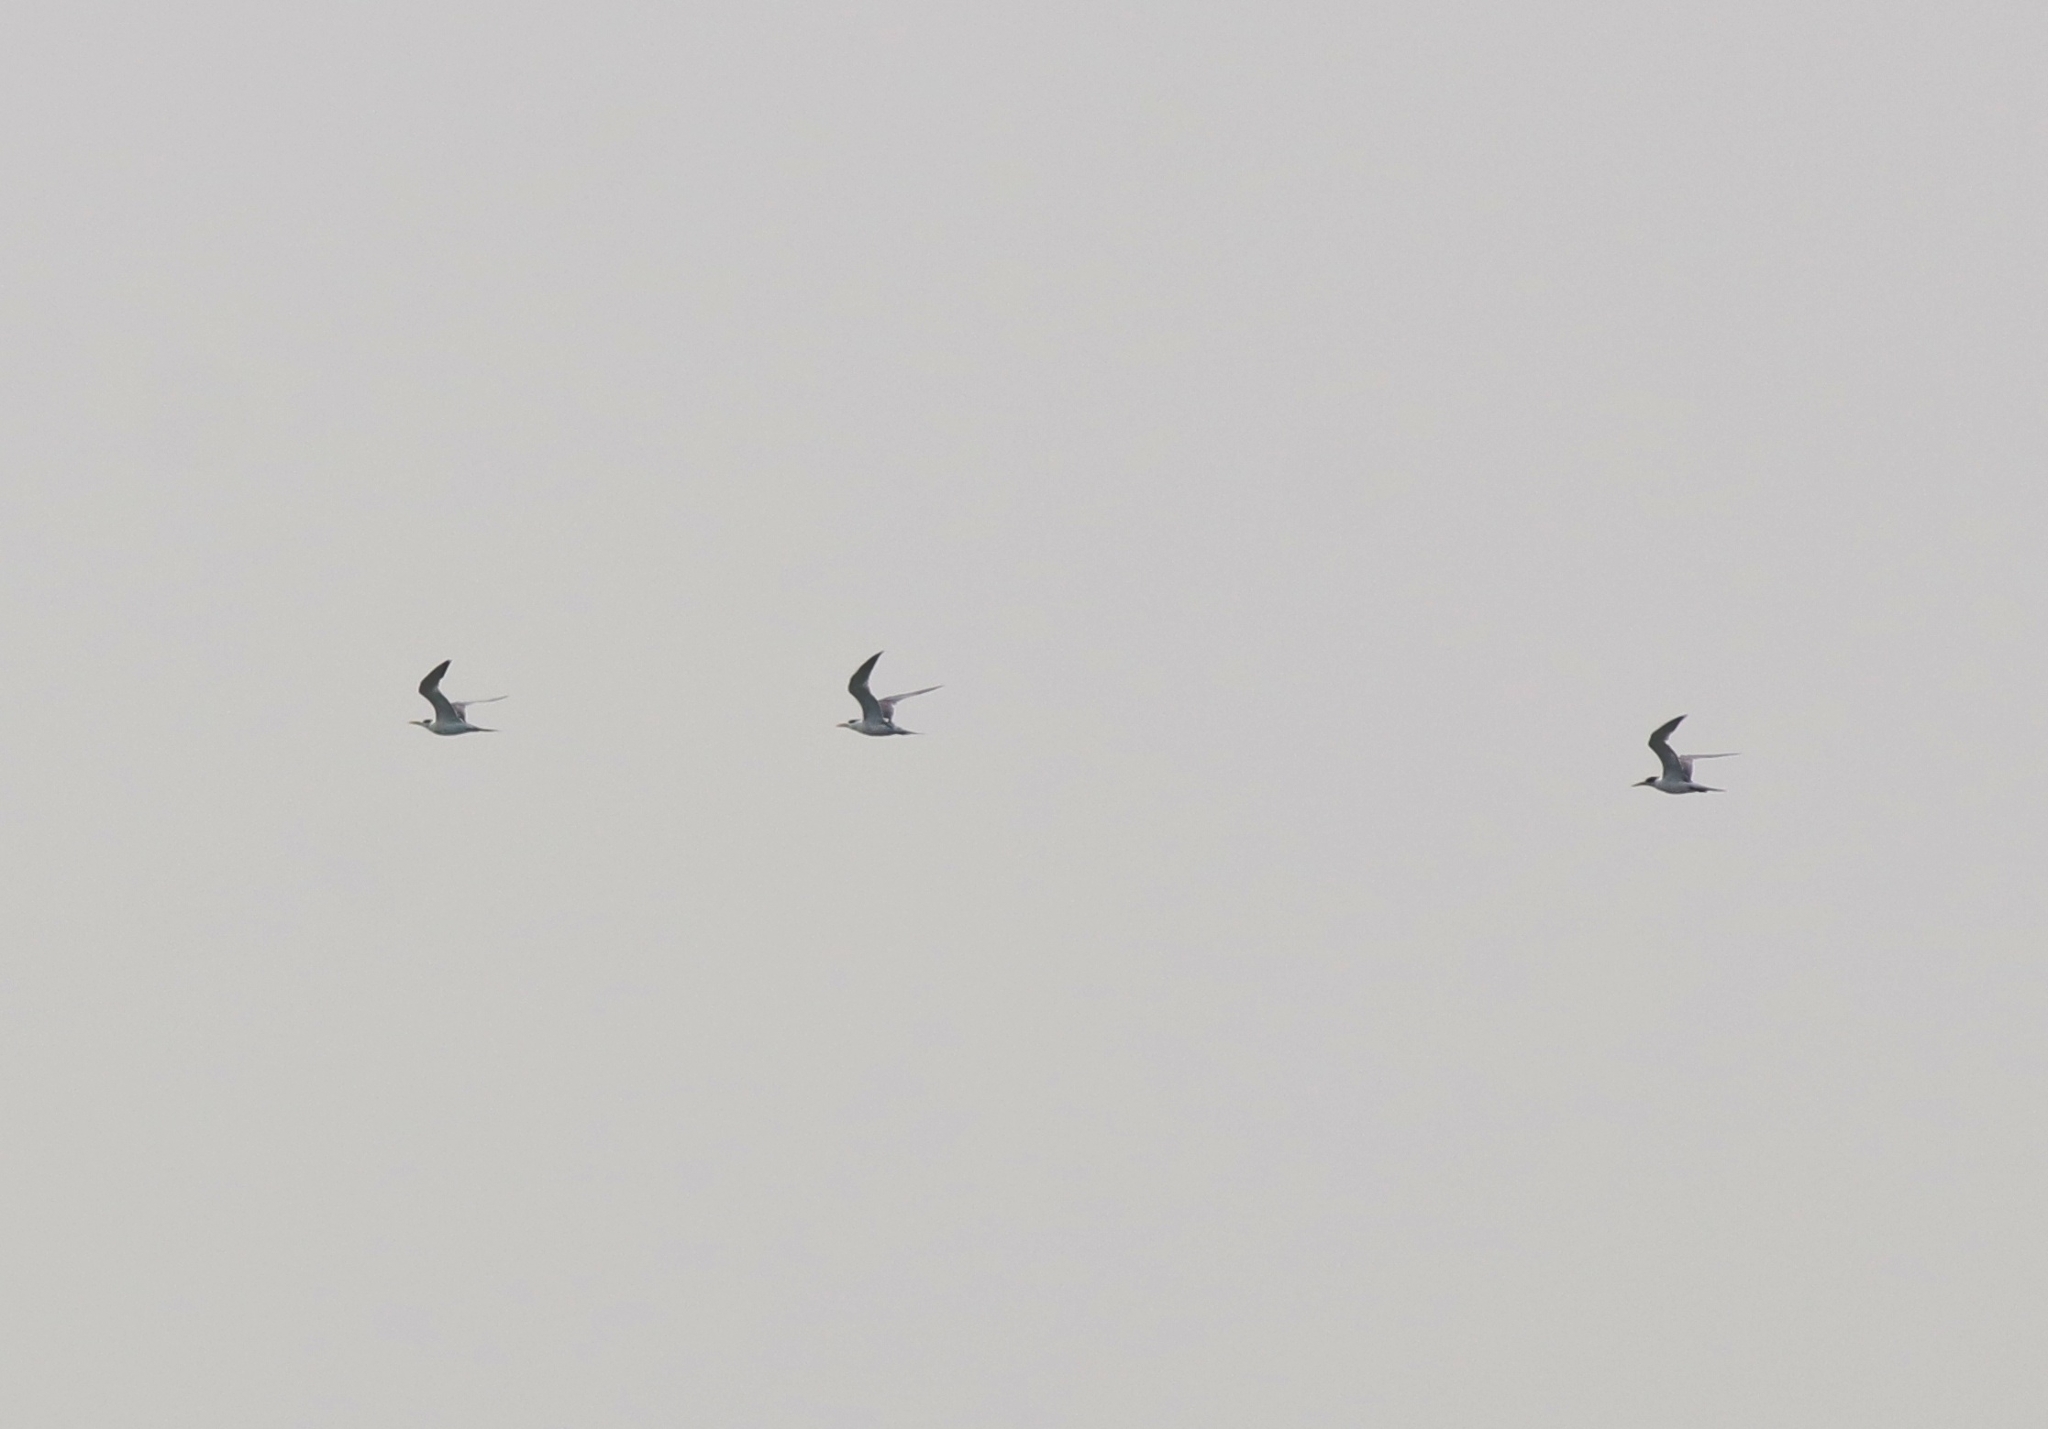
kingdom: Animalia
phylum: Chordata
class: Aves
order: Charadriiformes
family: Laridae
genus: Thalasseus
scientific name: Thalasseus bengalensis
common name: Lesser crested tern
